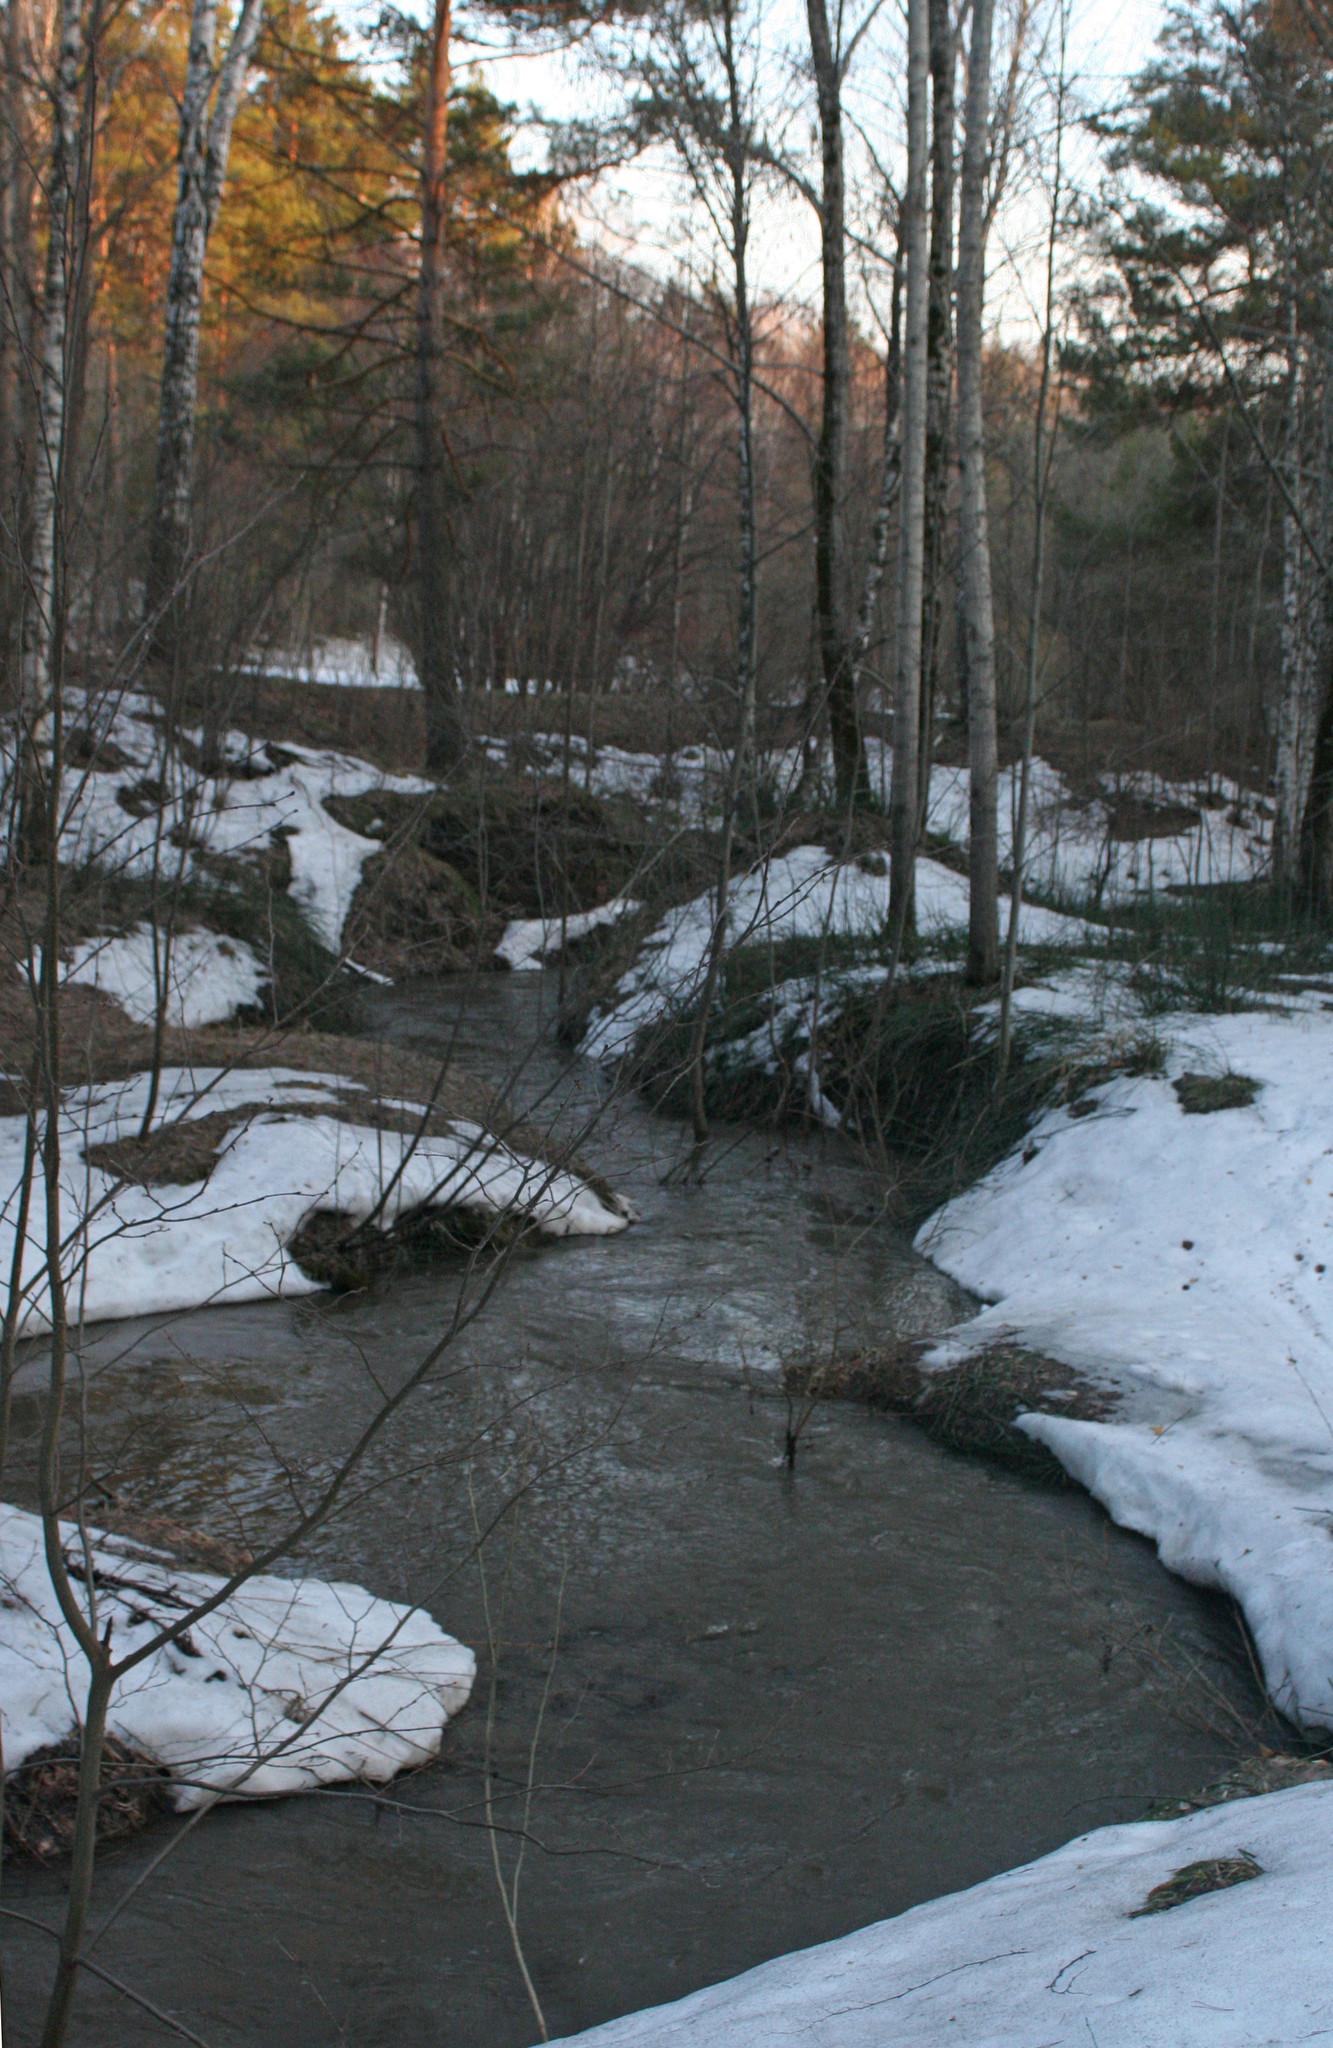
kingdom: Plantae
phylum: Tracheophyta
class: Pinopsida
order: Pinales
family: Pinaceae
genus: Pinus
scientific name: Pinus sylvestris
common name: Scots pine
